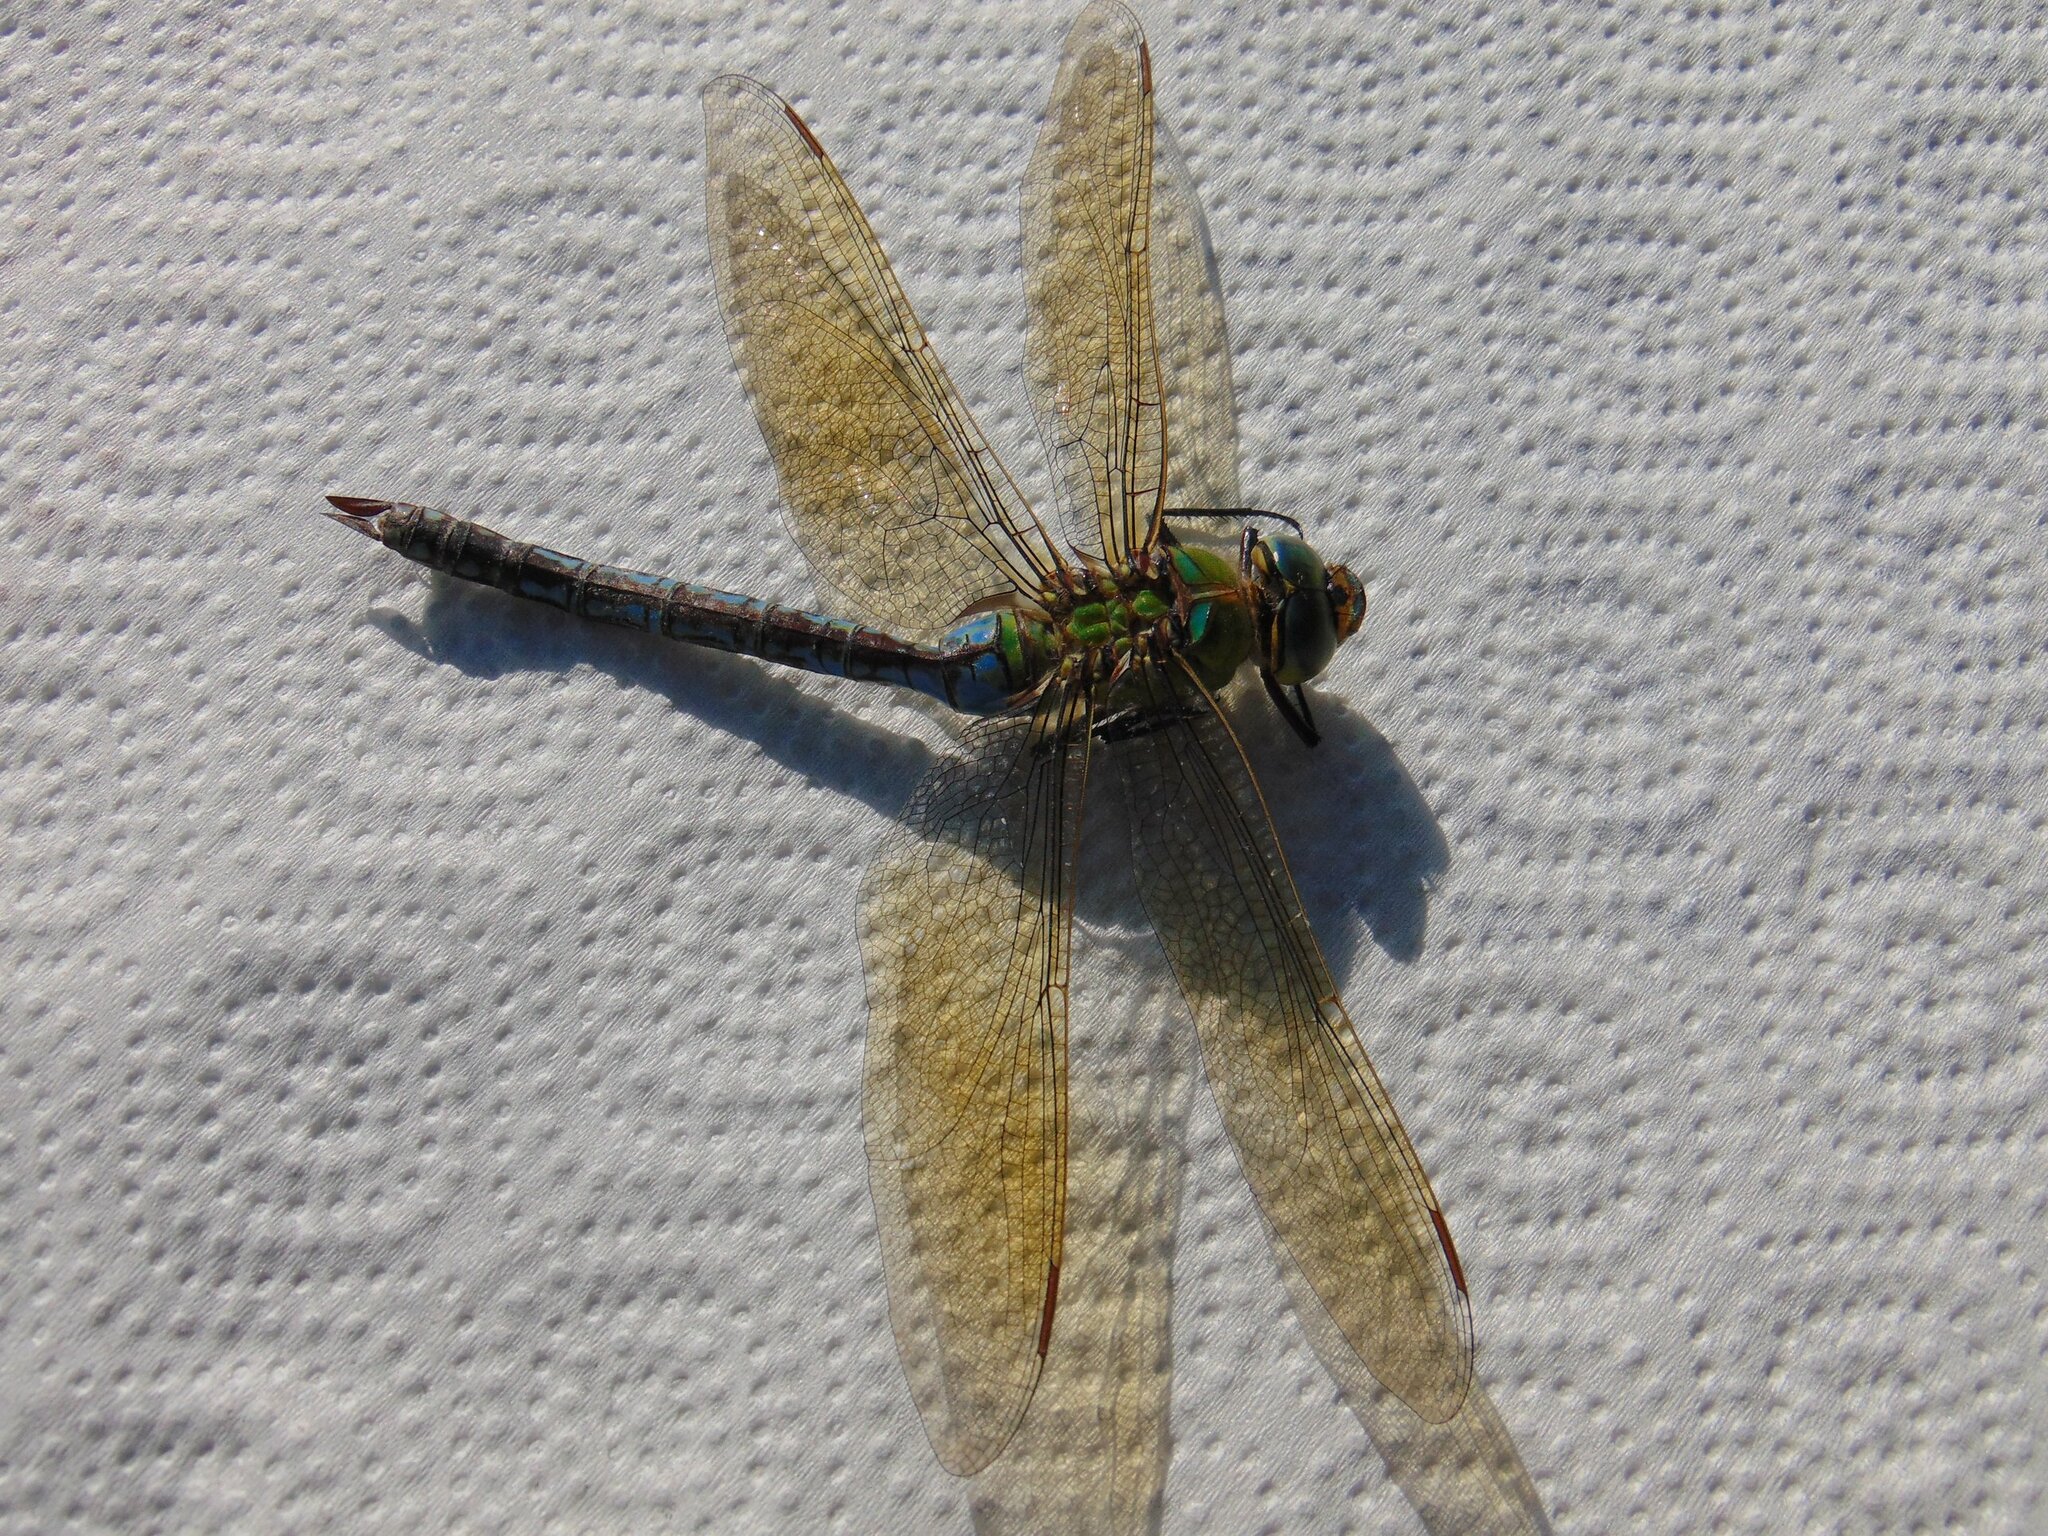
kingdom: Animalia
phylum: Arthropoda
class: Insecta
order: Odonata
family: Aeshnidae
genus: Anax
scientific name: Anax imperator
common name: Emperor dragonfly
